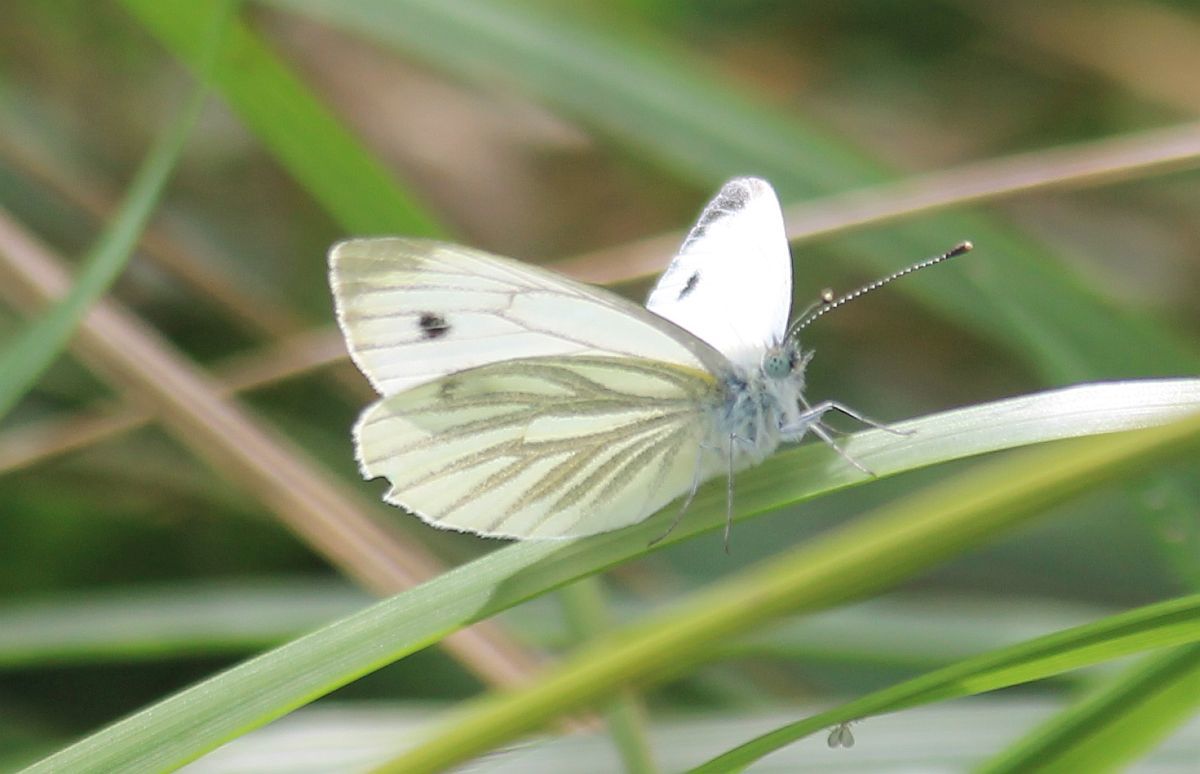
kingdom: Animalia
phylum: Arthropoda
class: Insecta
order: Lepidoptera
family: Pieridae
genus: Pieris
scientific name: Pieris napi
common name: Green-veined white
